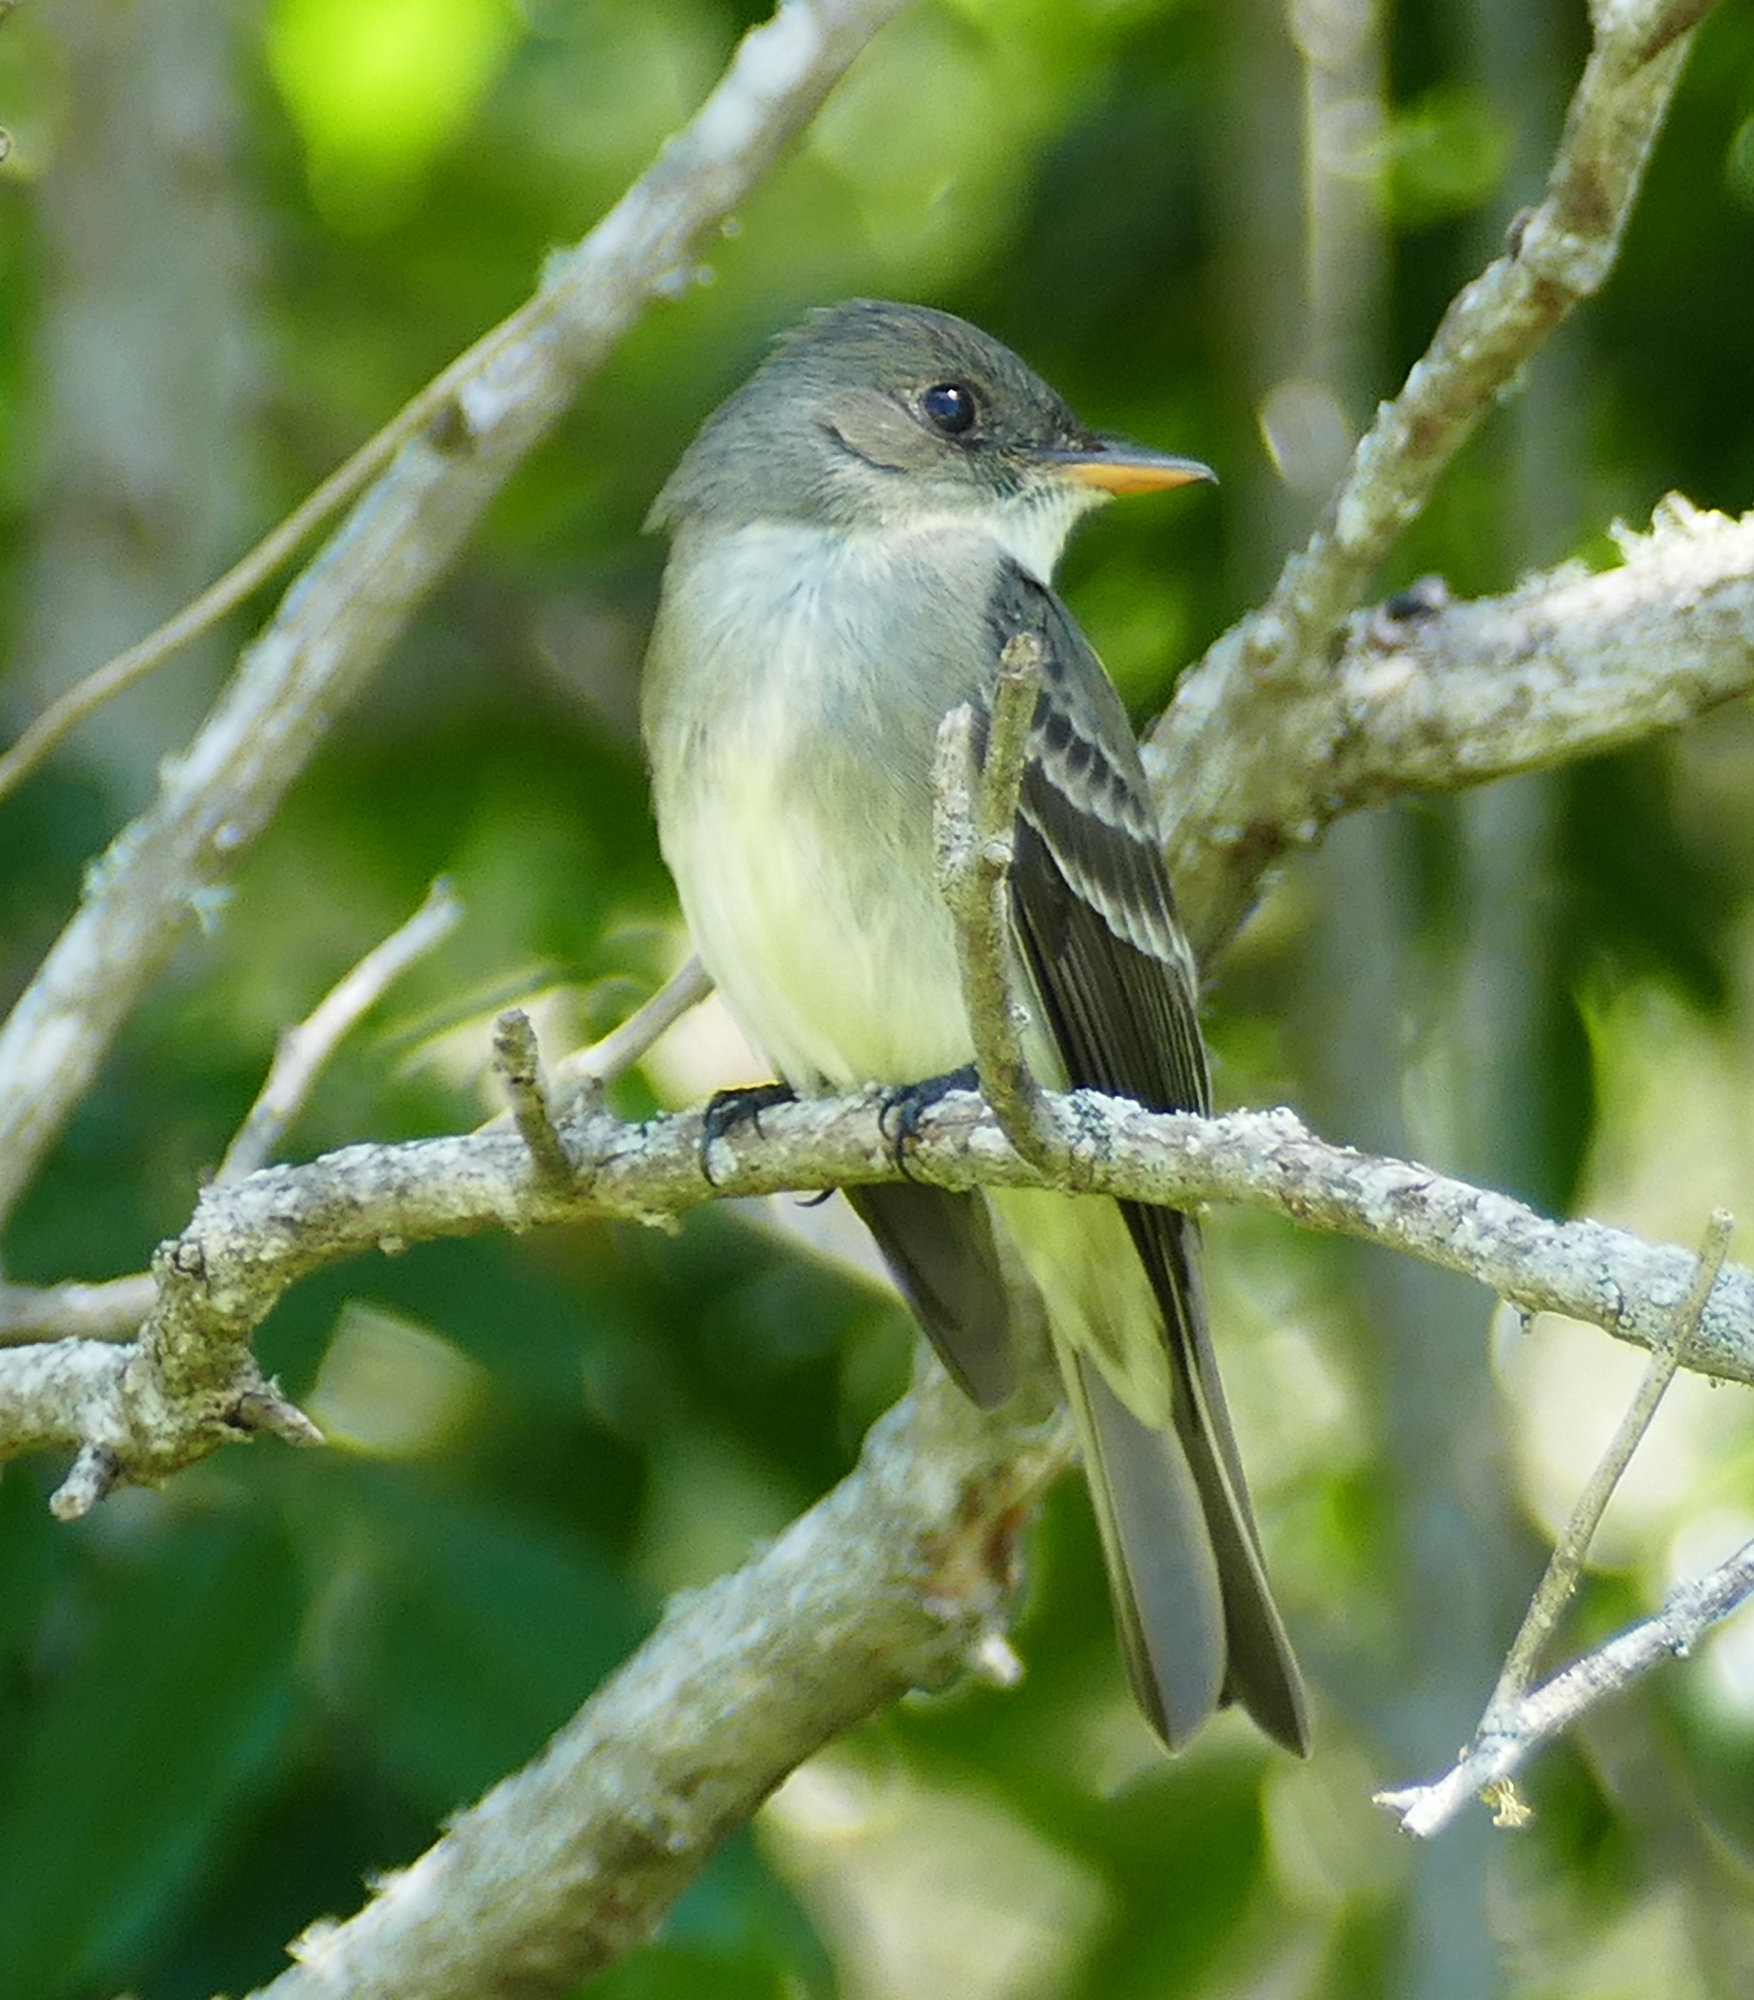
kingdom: Animalia
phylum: Chordata
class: Aves
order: Passeriformes
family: Tyrannidae
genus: Contopus
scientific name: Contopus virens
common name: Eastern wood-pewee
